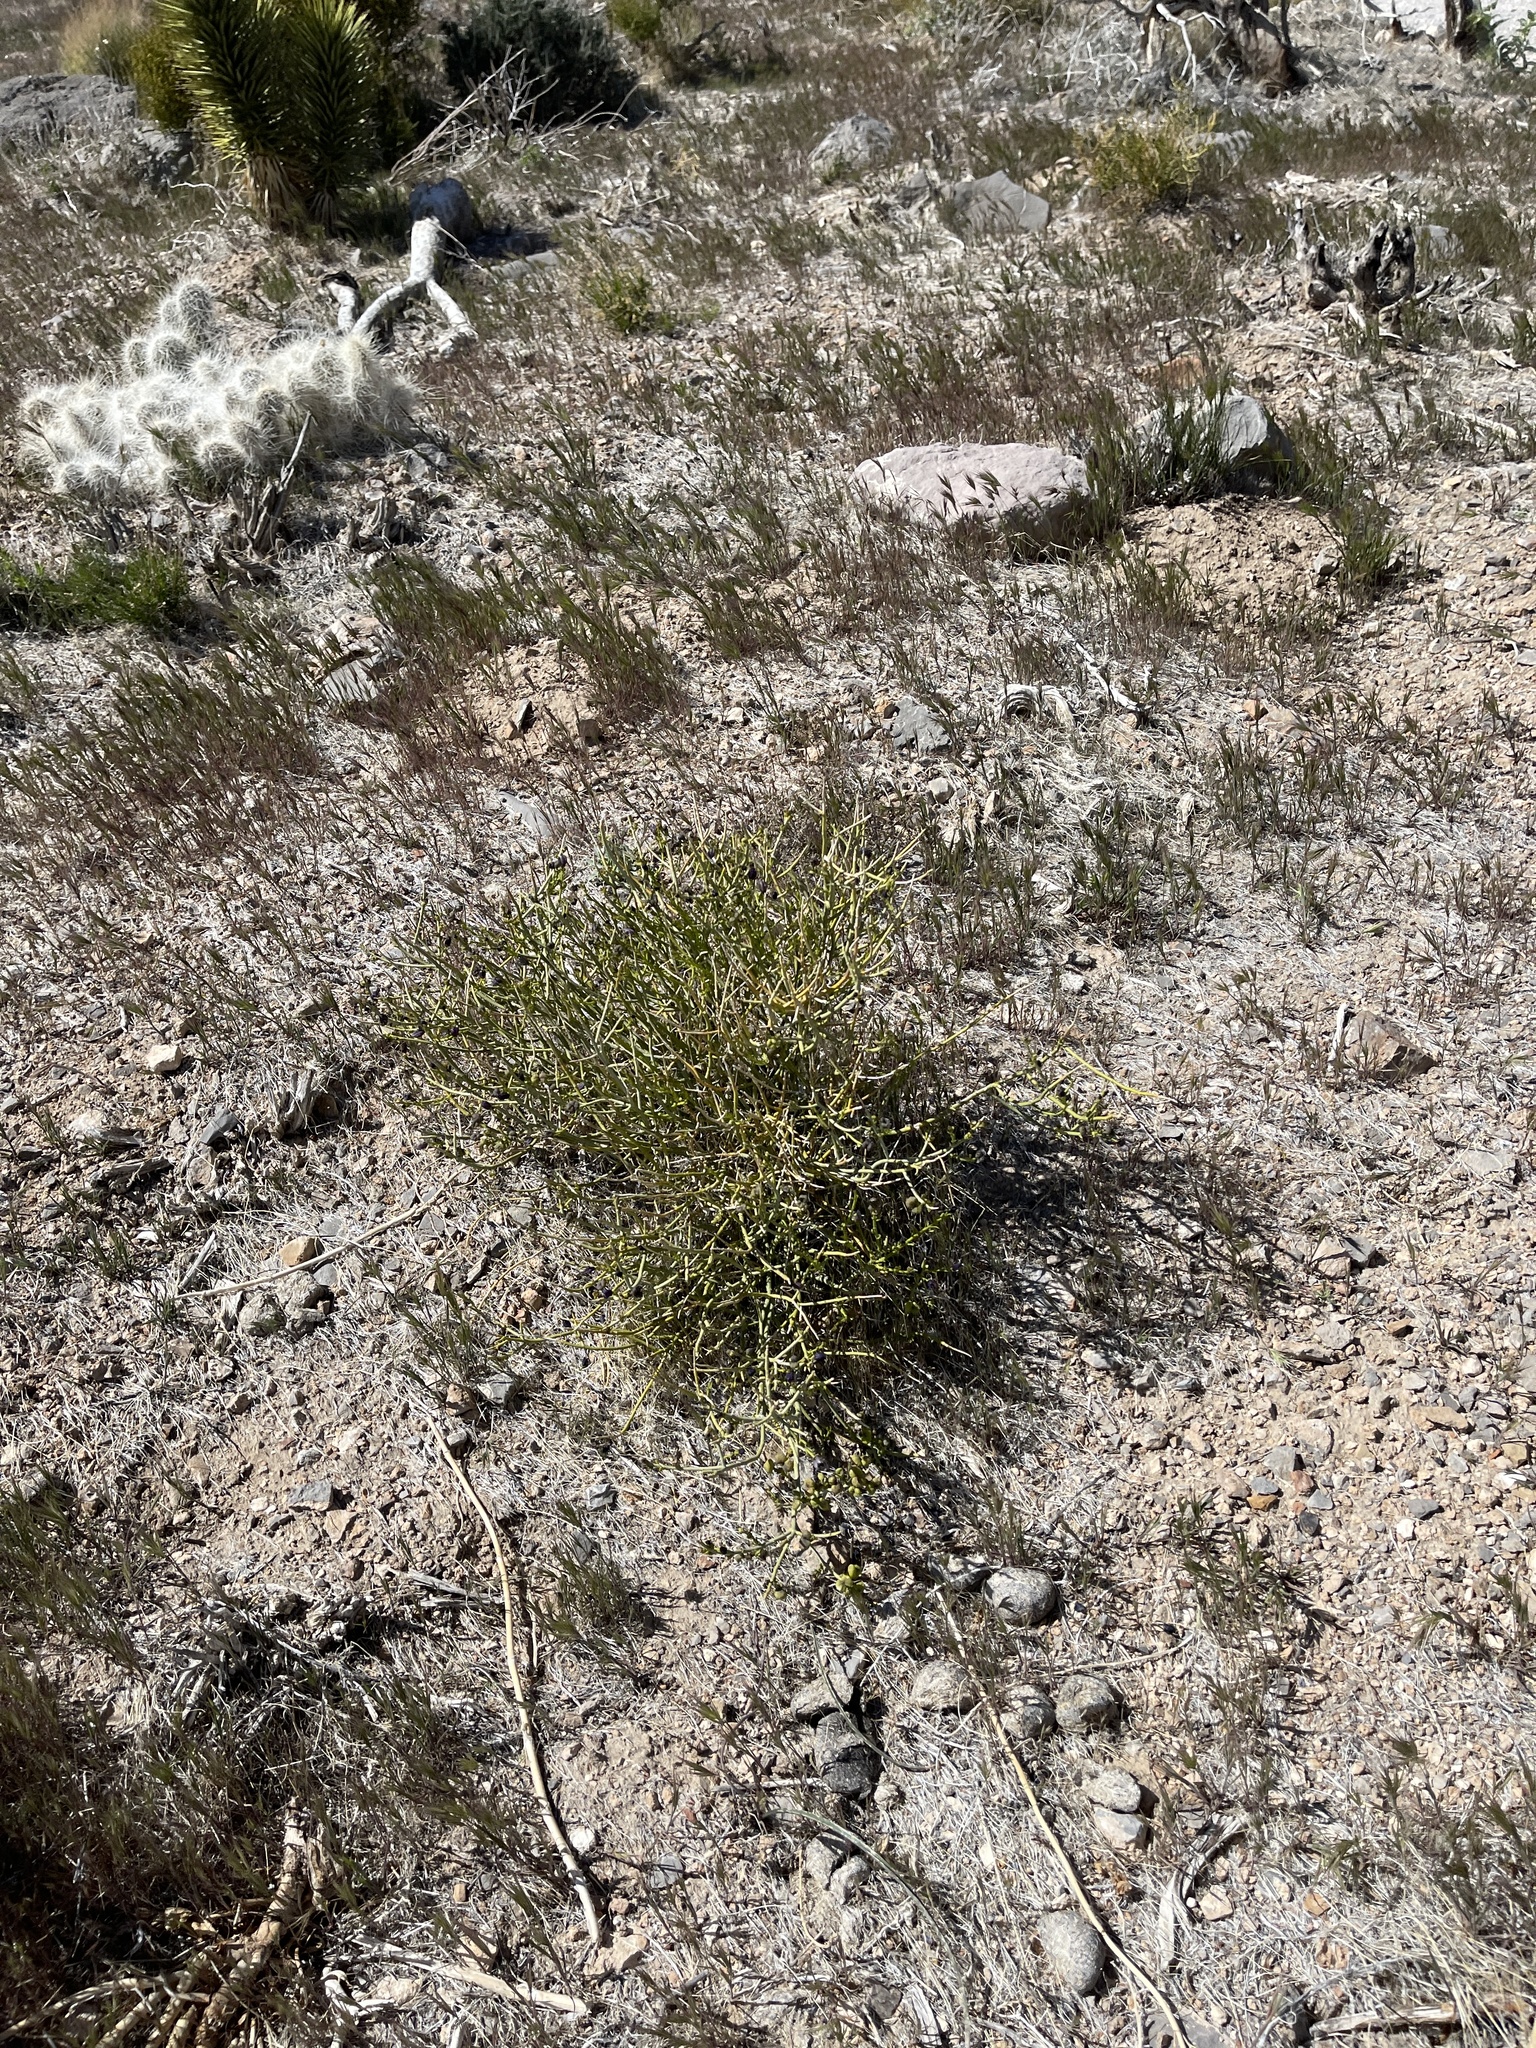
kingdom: Plantae
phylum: Tracheophyta
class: Magnoliopsida
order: Sapindales
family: Rutaceae
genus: Thamnosma
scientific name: Thamnosma montana
